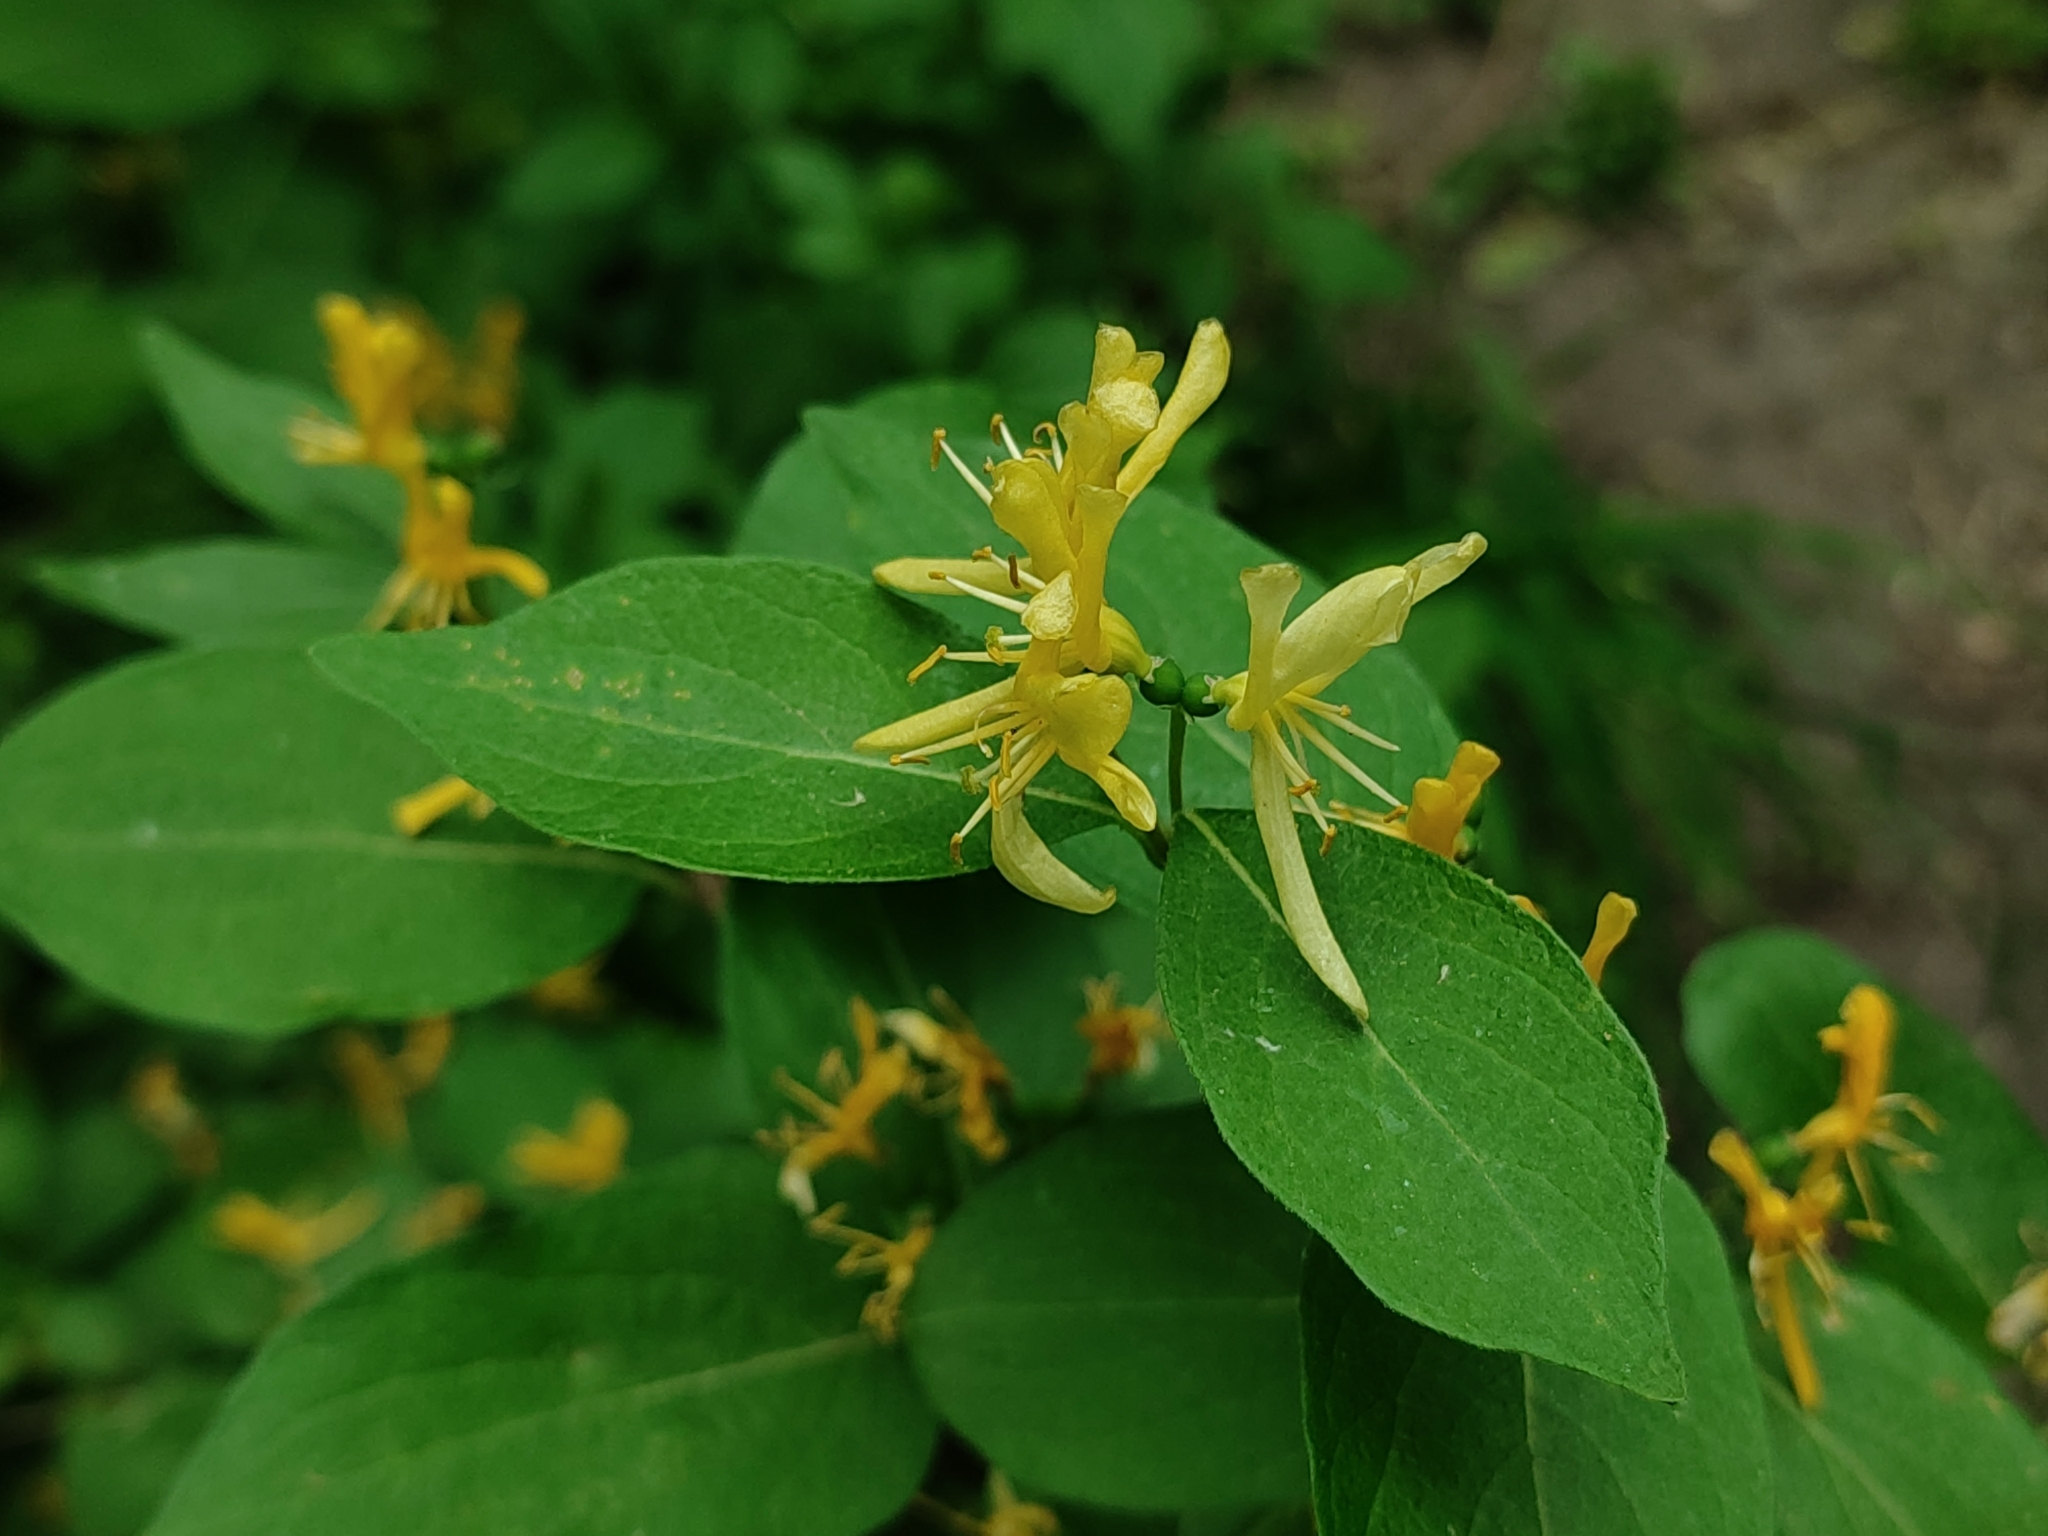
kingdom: Plantae
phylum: Tracheophyta
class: Magnoliopsida
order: Dipsacales
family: Caprifoliaceae
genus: Lonicera
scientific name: Lonicera ruprechtiana
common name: Manchurian honeysuckle
